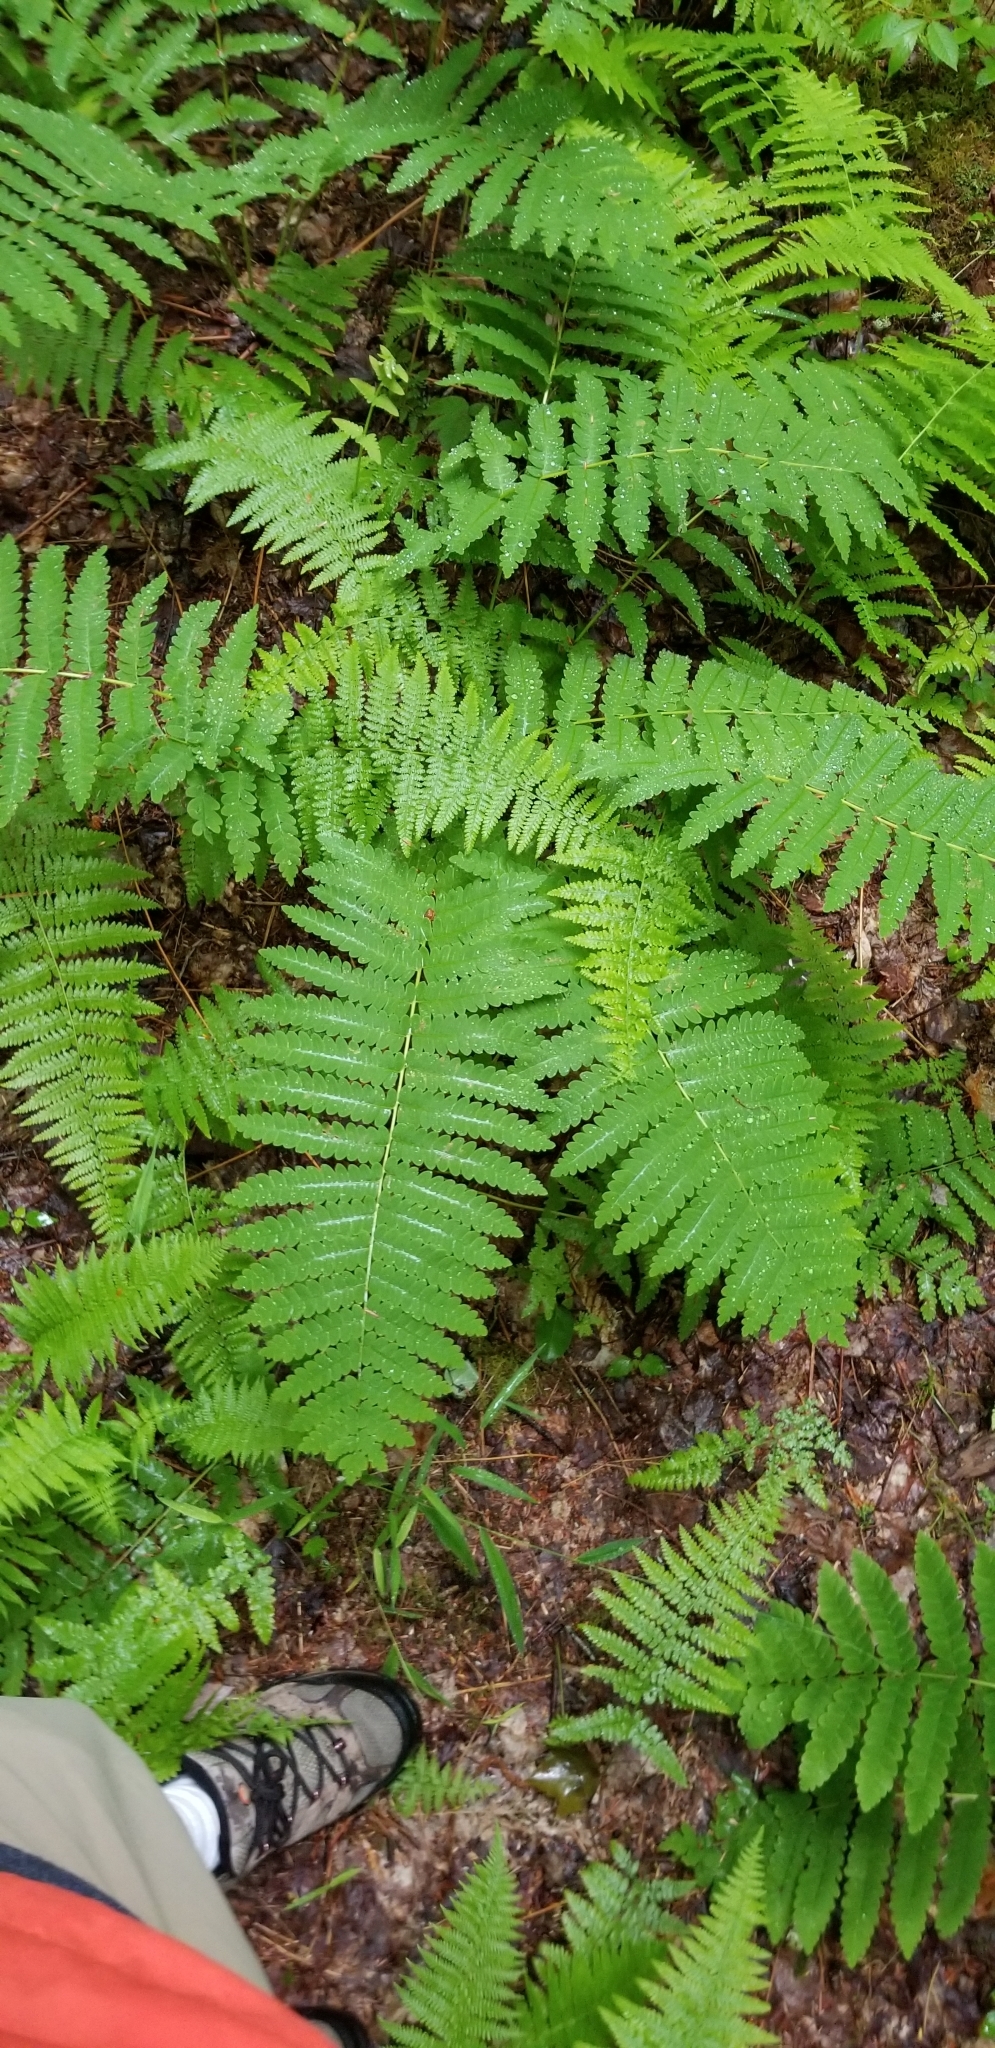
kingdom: Plantae
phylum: Tracheophyta
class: Polypodiopsida
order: Osmundales
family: Osmundaceae
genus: Claytosmunda
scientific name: Claytosmunda claytoniana
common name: Clayton's fern
